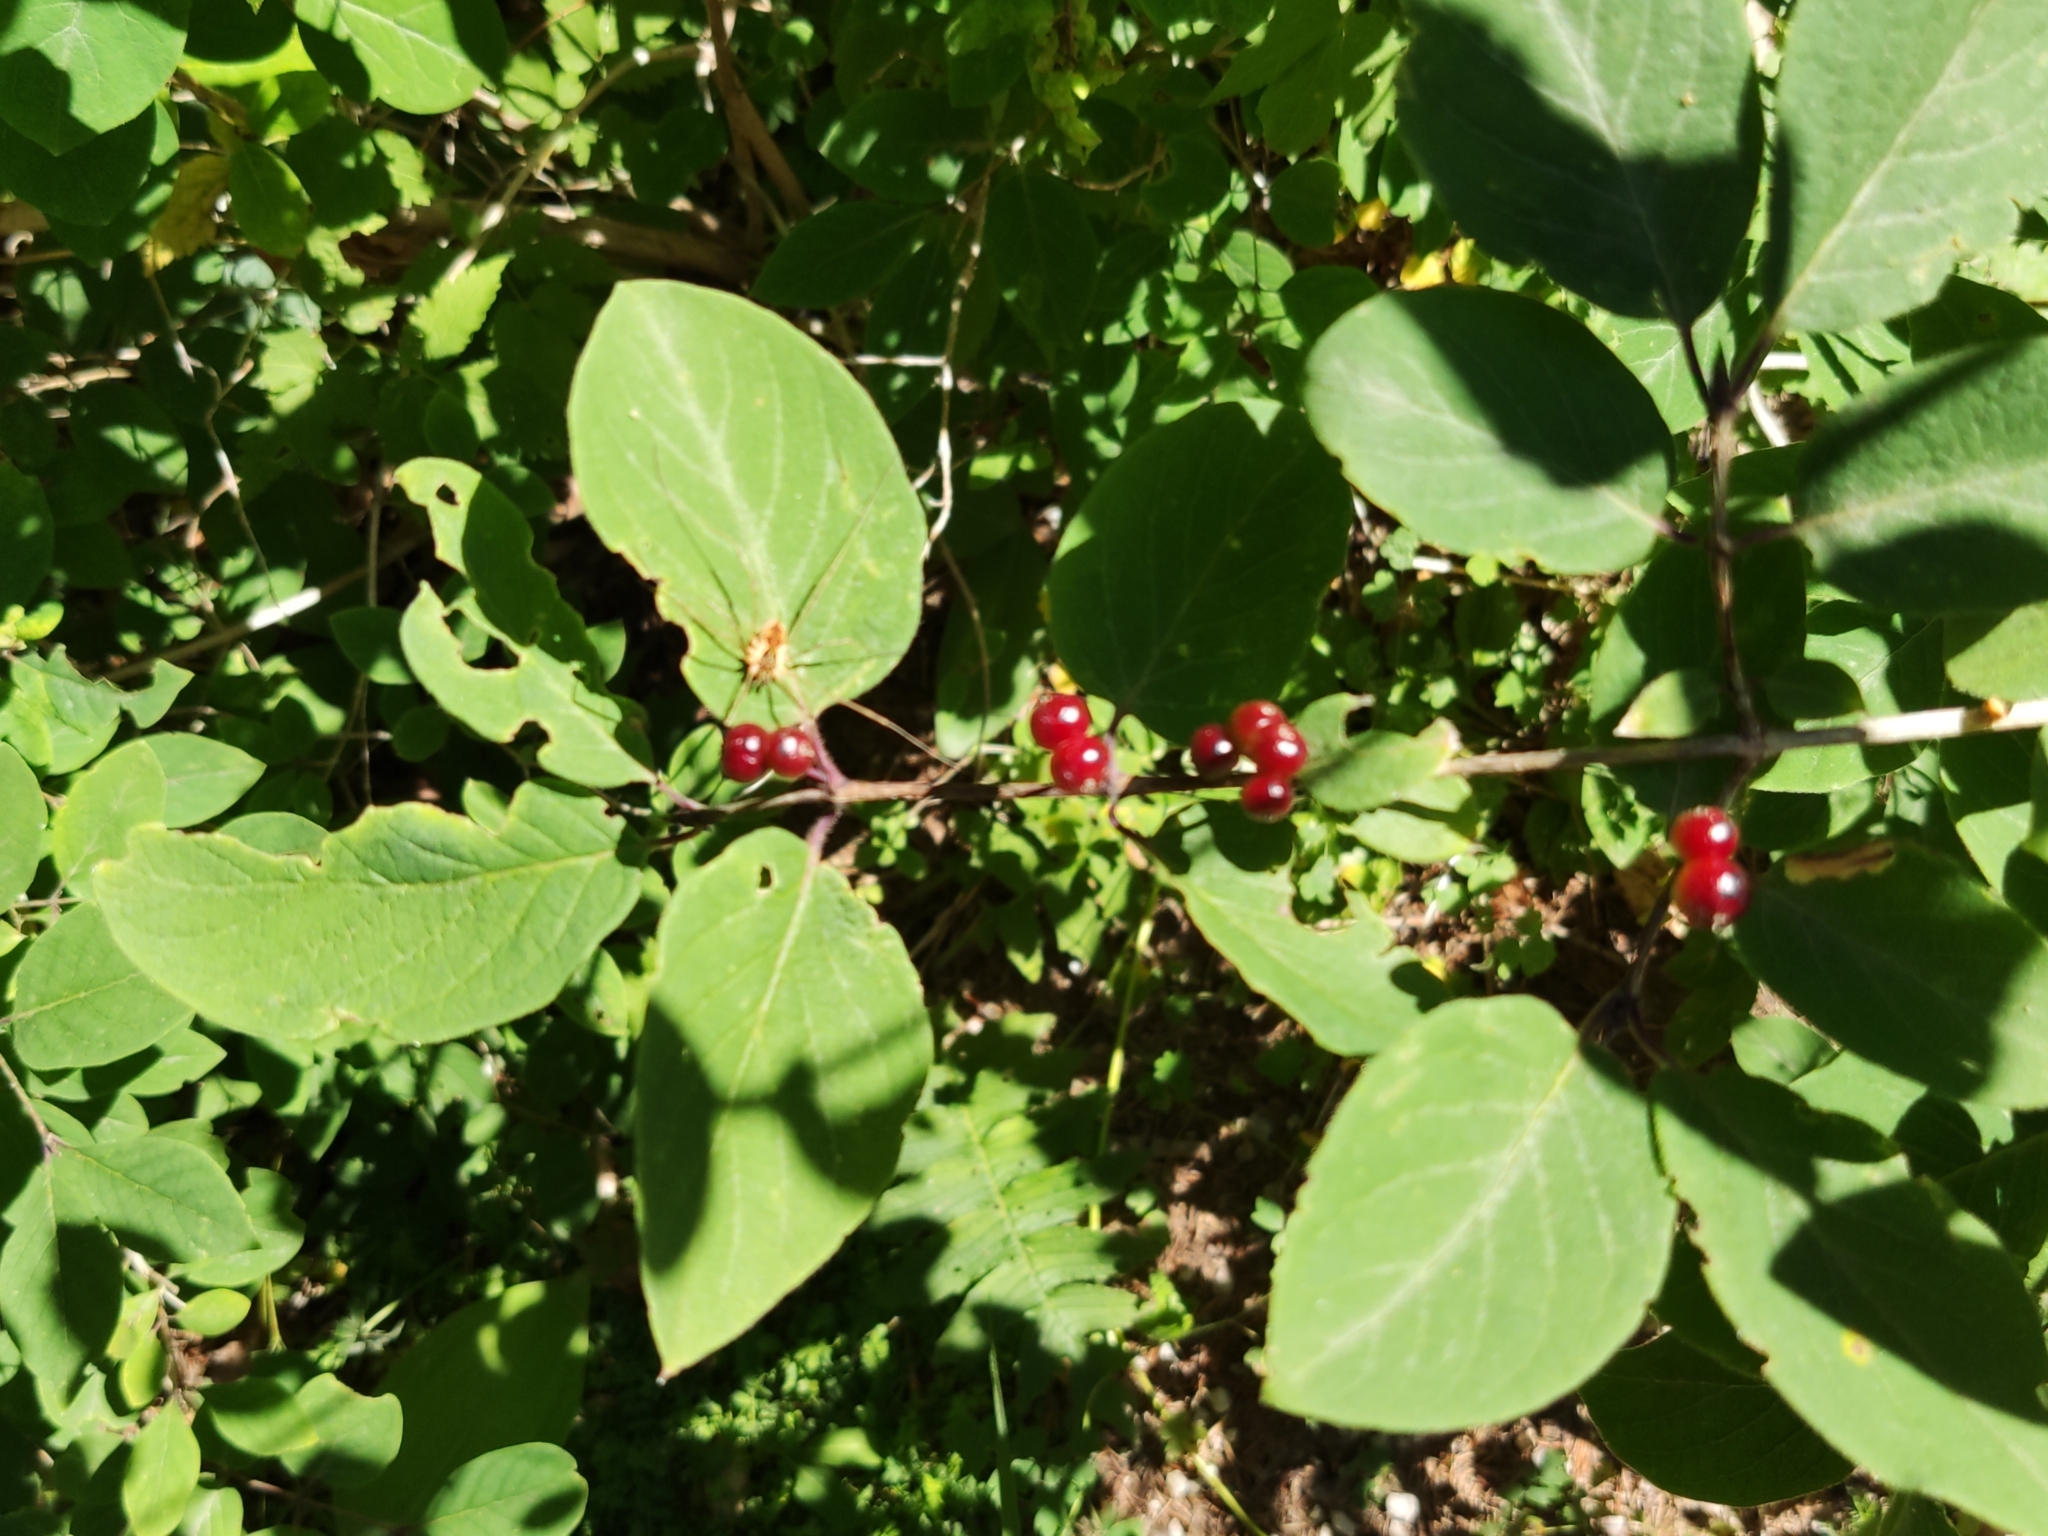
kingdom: Plantae
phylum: Tracheophyta
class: Magnoliopsida
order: Dipsacales
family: Caprifoliaceae
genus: Lonicera
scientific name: Lonicera xylosteum
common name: Fly honeysuckle
